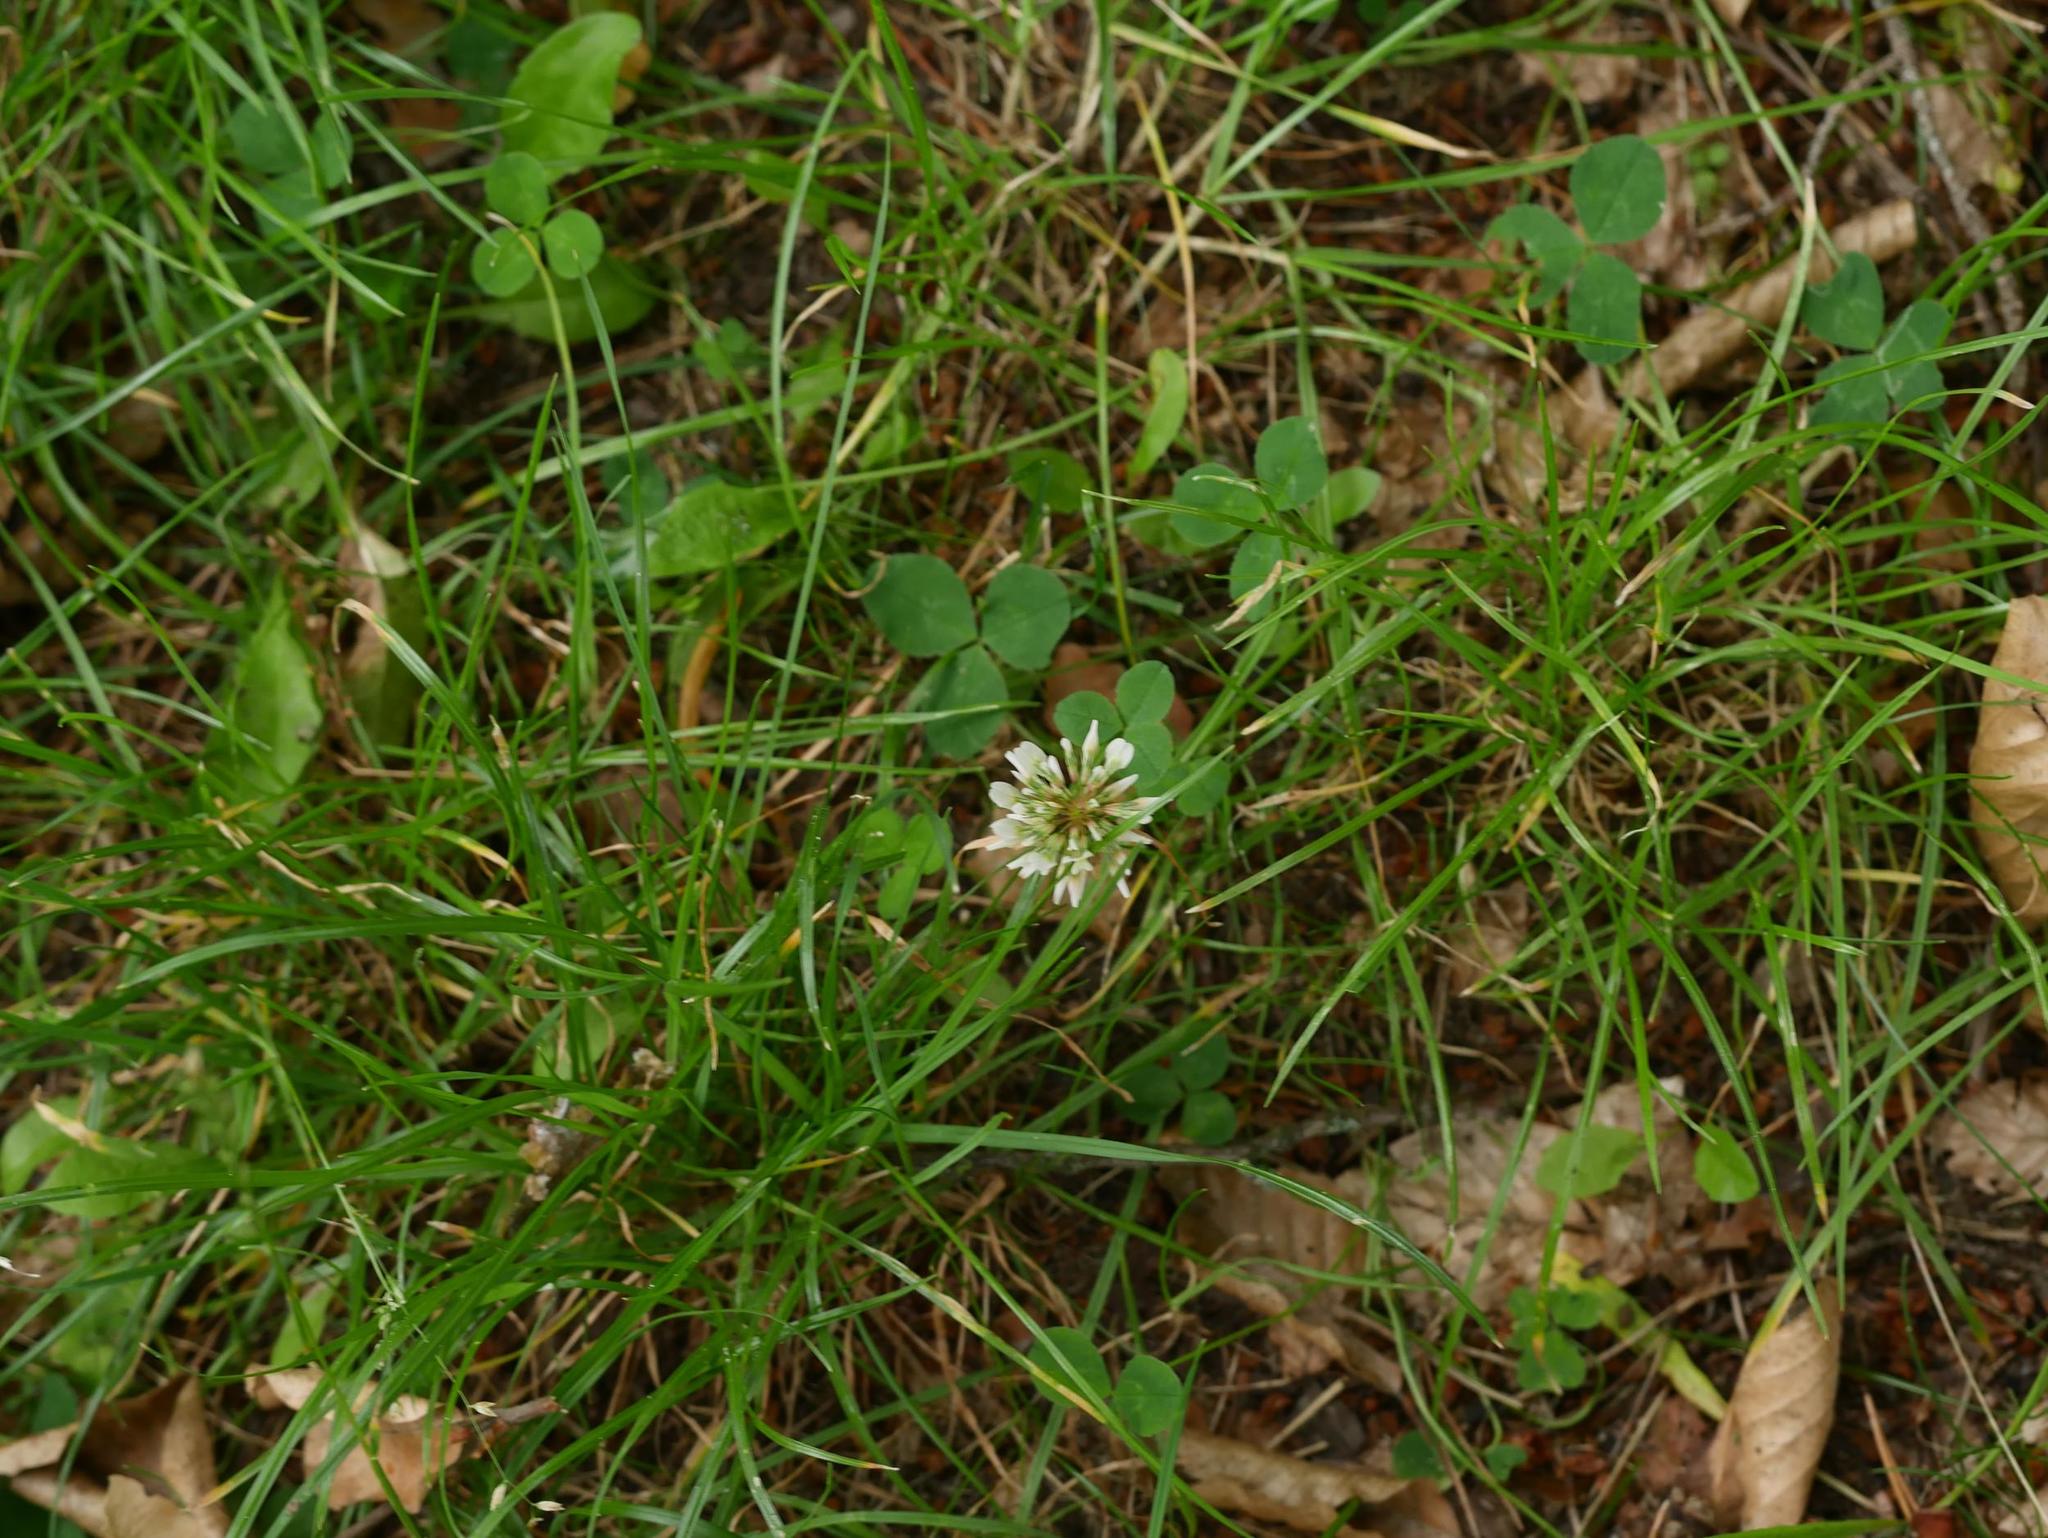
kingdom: Plantae
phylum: Tracheophyta
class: Magnoliopsida
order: Fabales
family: Fabaceae
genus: Trifolium
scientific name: Trifolium repens
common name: White clover
